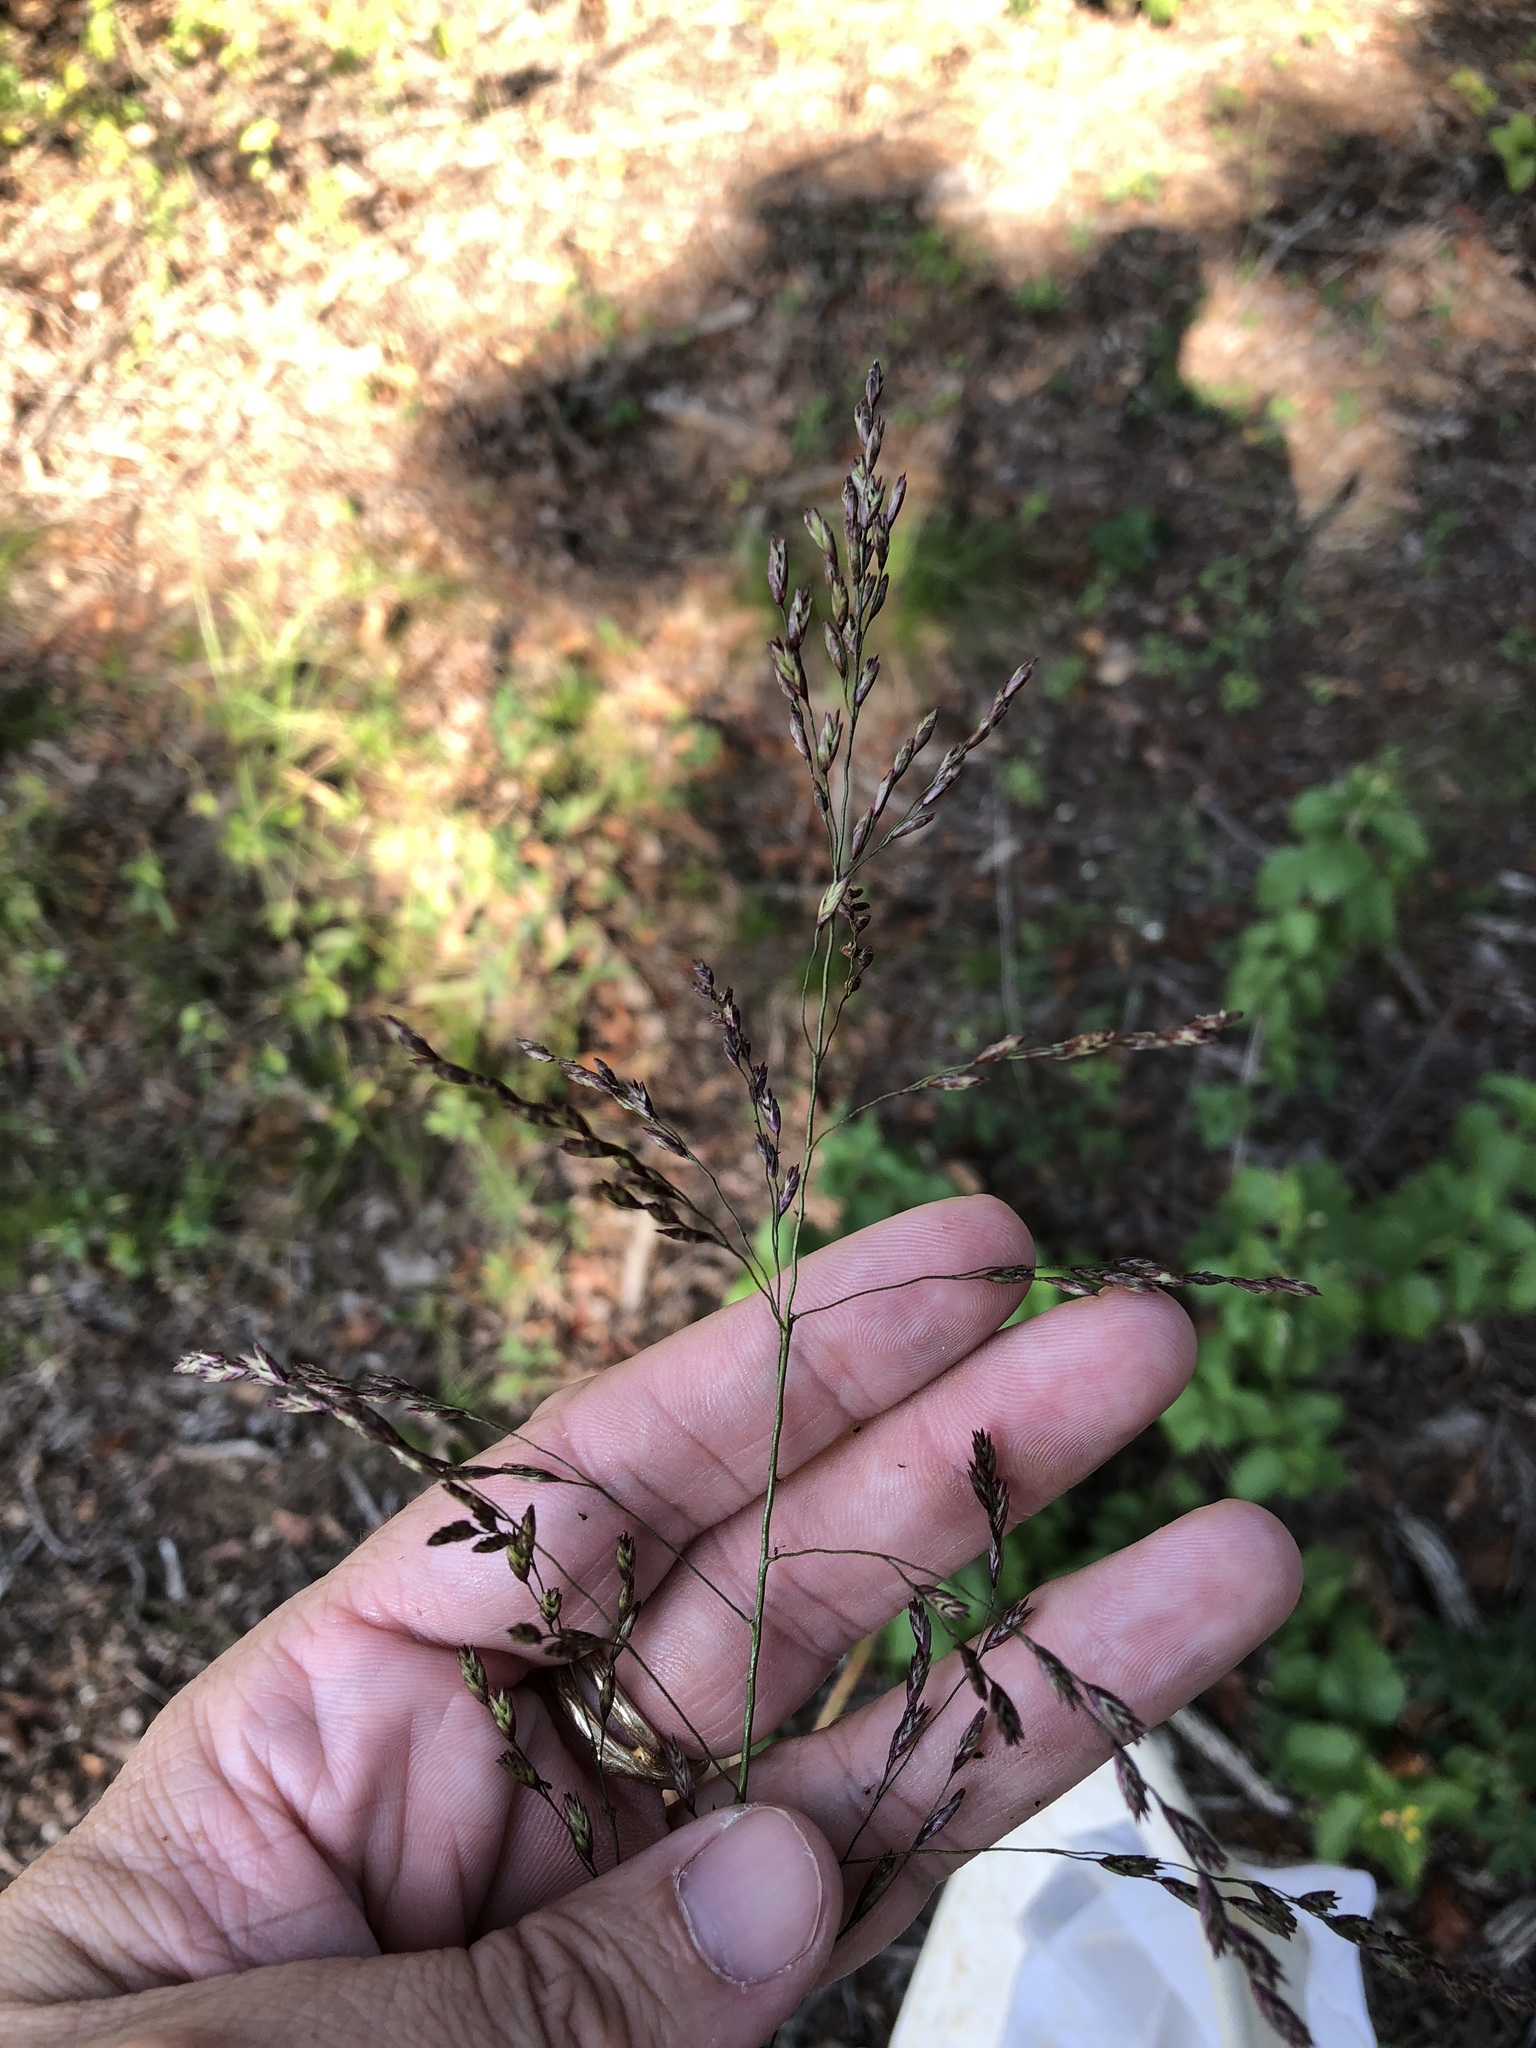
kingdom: Plantae
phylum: Tracheophyta
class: Liliopsida
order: Poales
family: Poaceae
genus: Tridens
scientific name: Tridens flavus
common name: Purpletop
